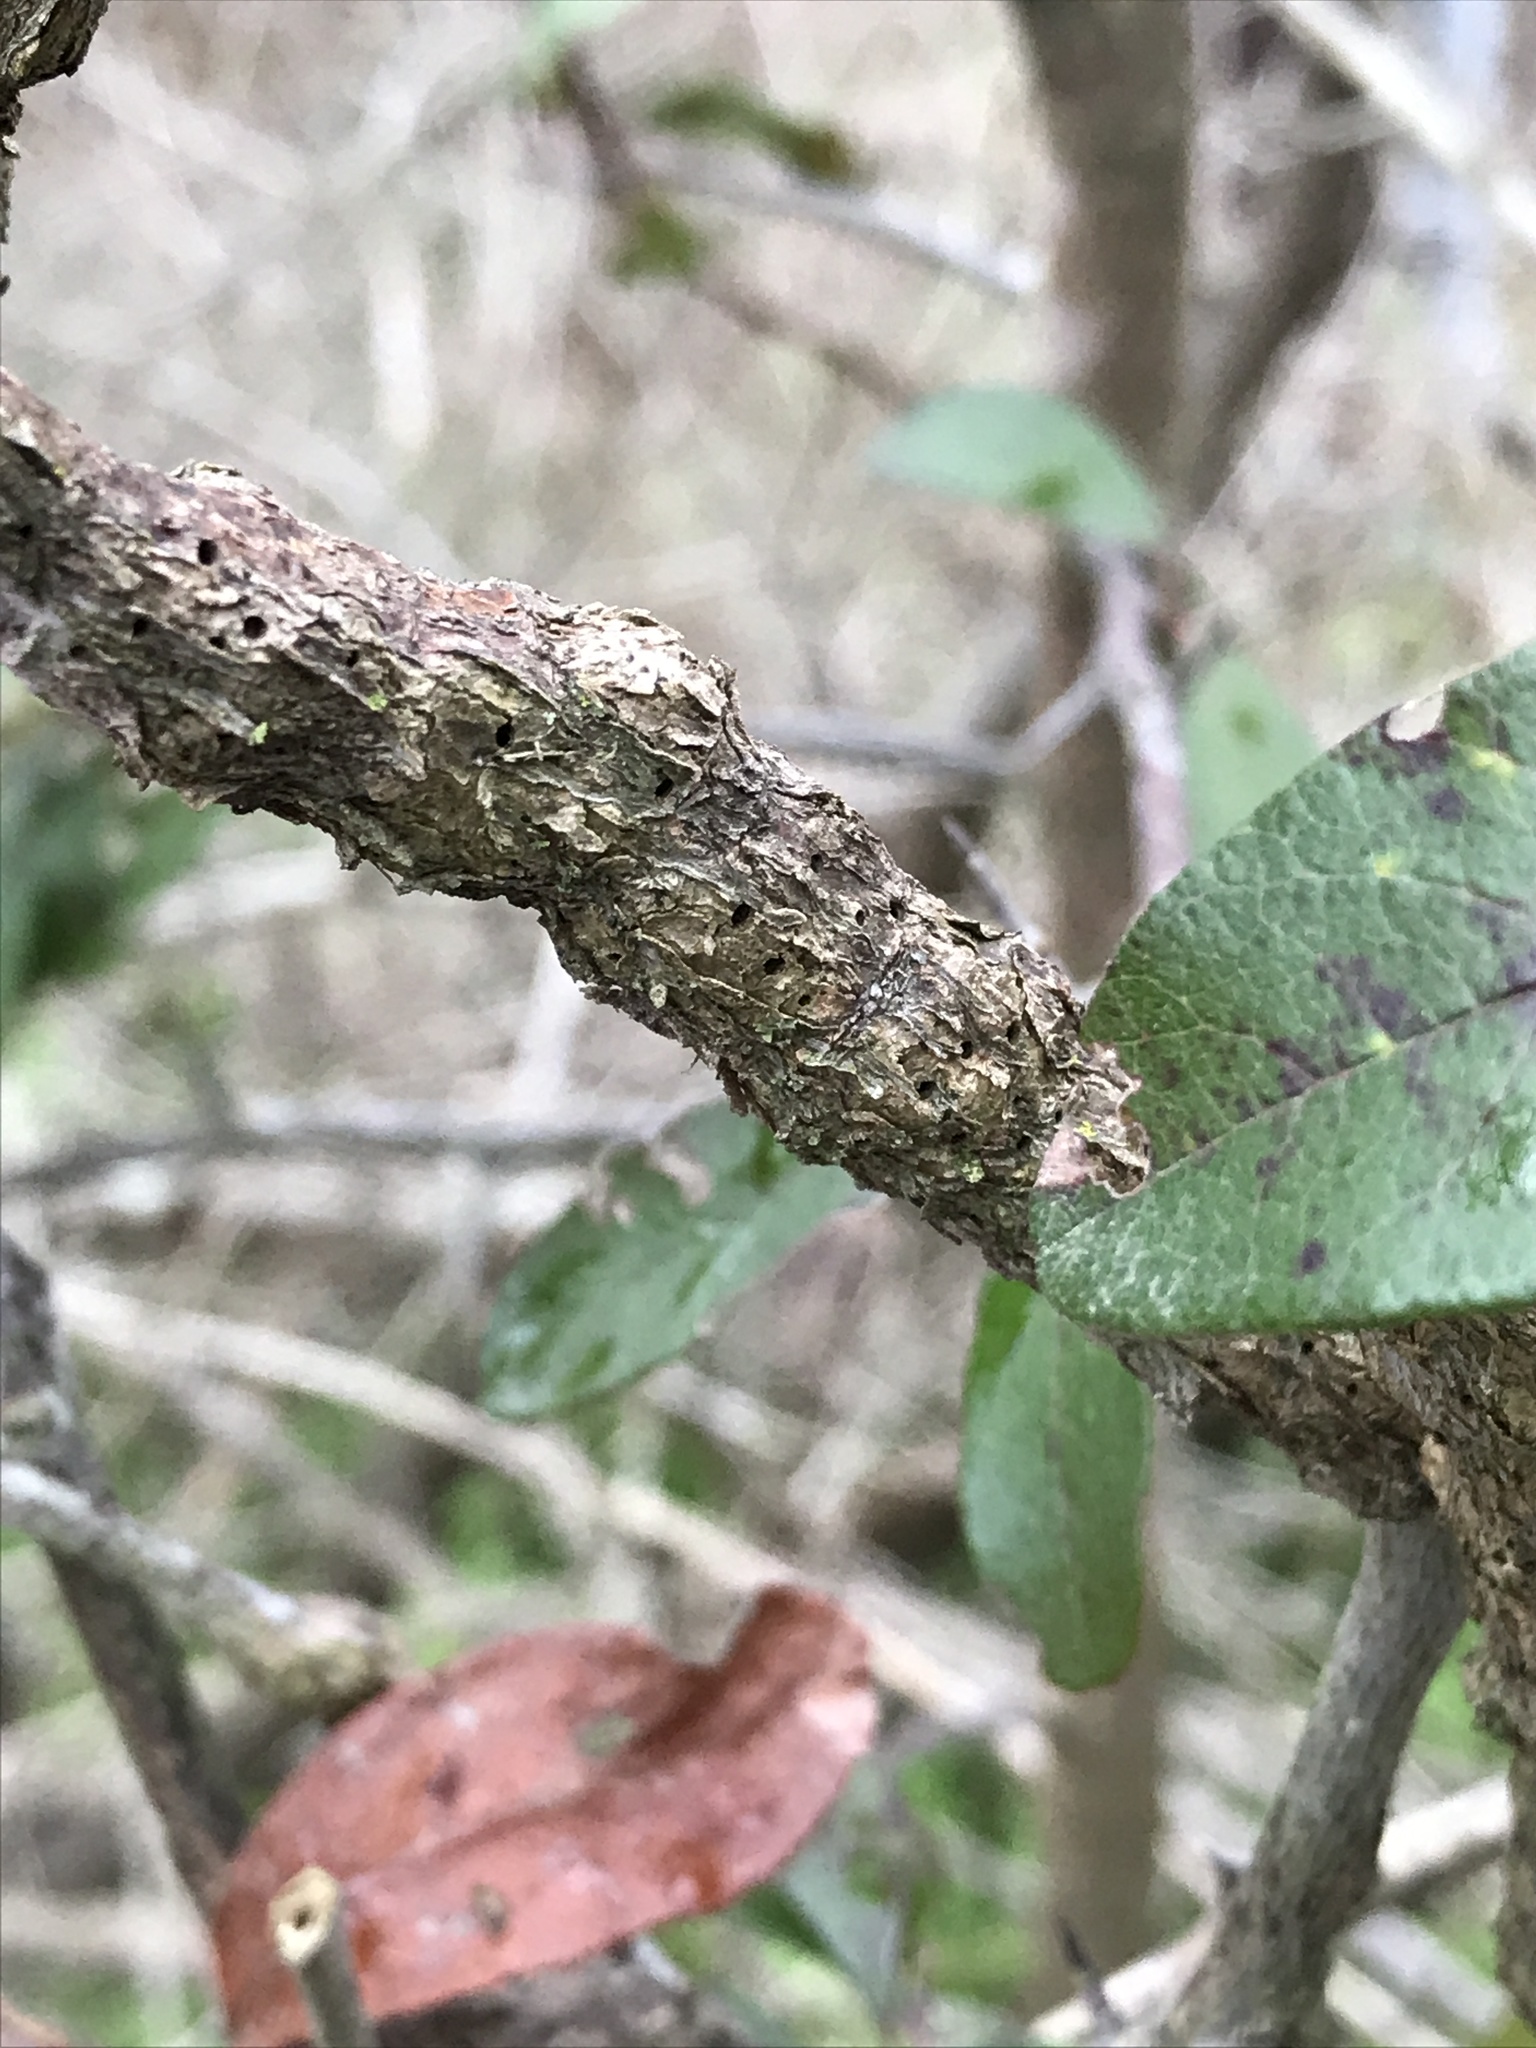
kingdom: Plantae
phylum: Tracheophyta
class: Magnoliopsida
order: Ericales
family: Sapotaceae
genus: Sideroxylon
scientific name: Sideroxylon lanuginosum
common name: Chittamwood
